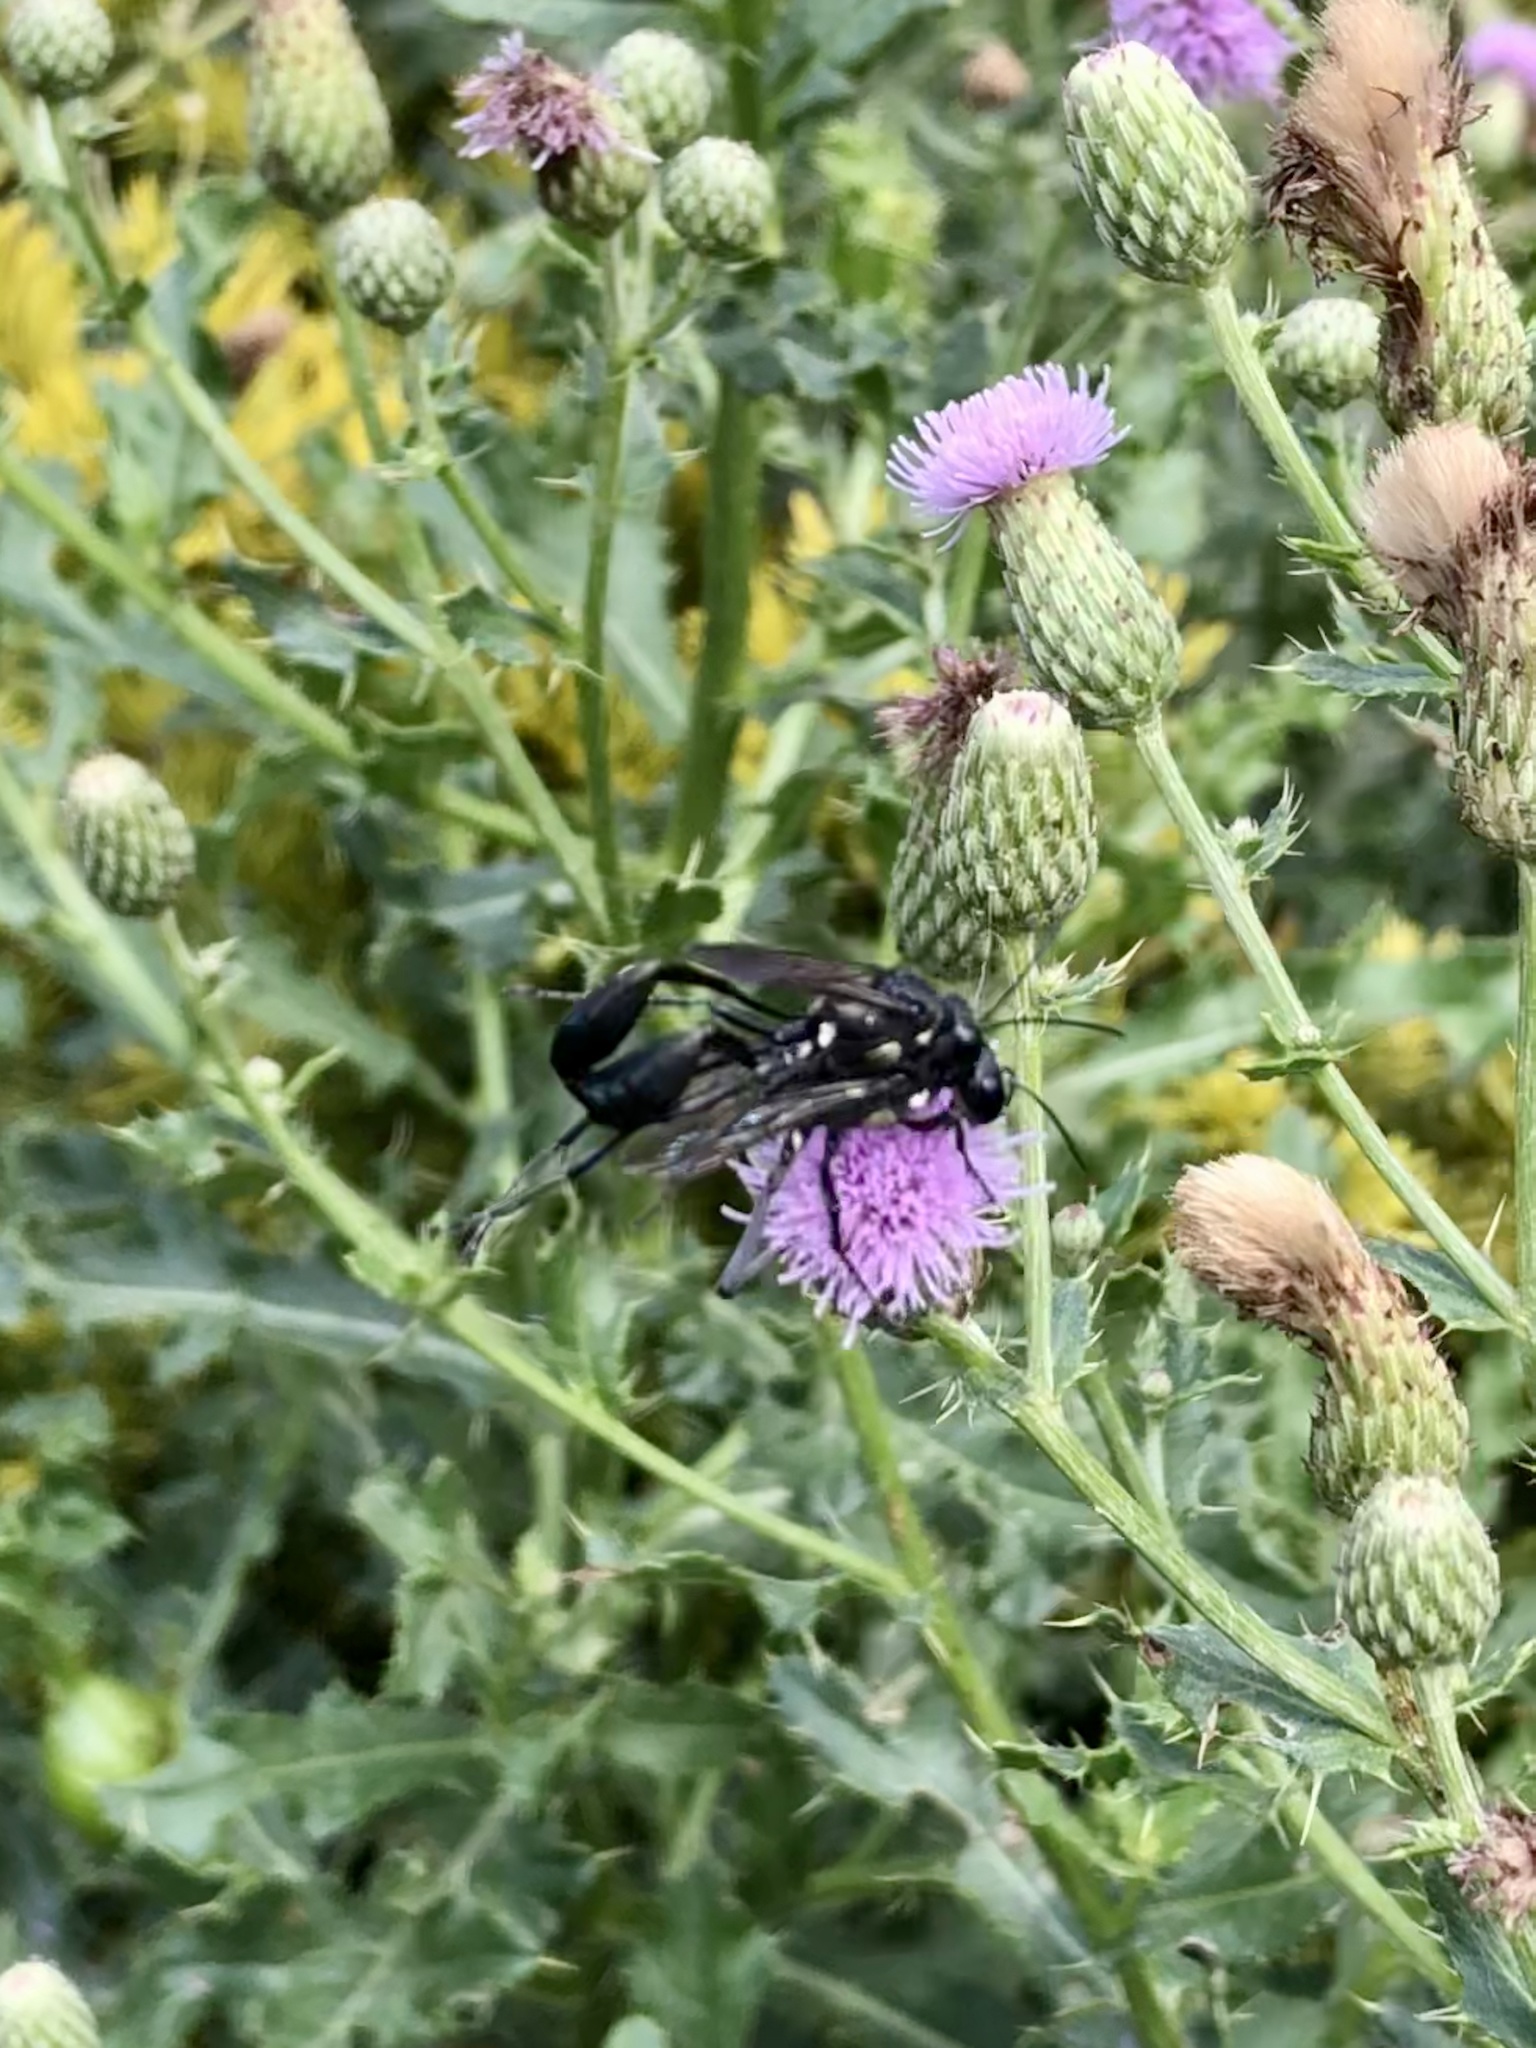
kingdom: Animalia
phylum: Arthropoda
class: Insecta
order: Hymenoptera
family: Sphecidae
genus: Eremnophila
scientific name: Eremnophila aureonotata
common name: Gold-marked thread-waisted wasp
